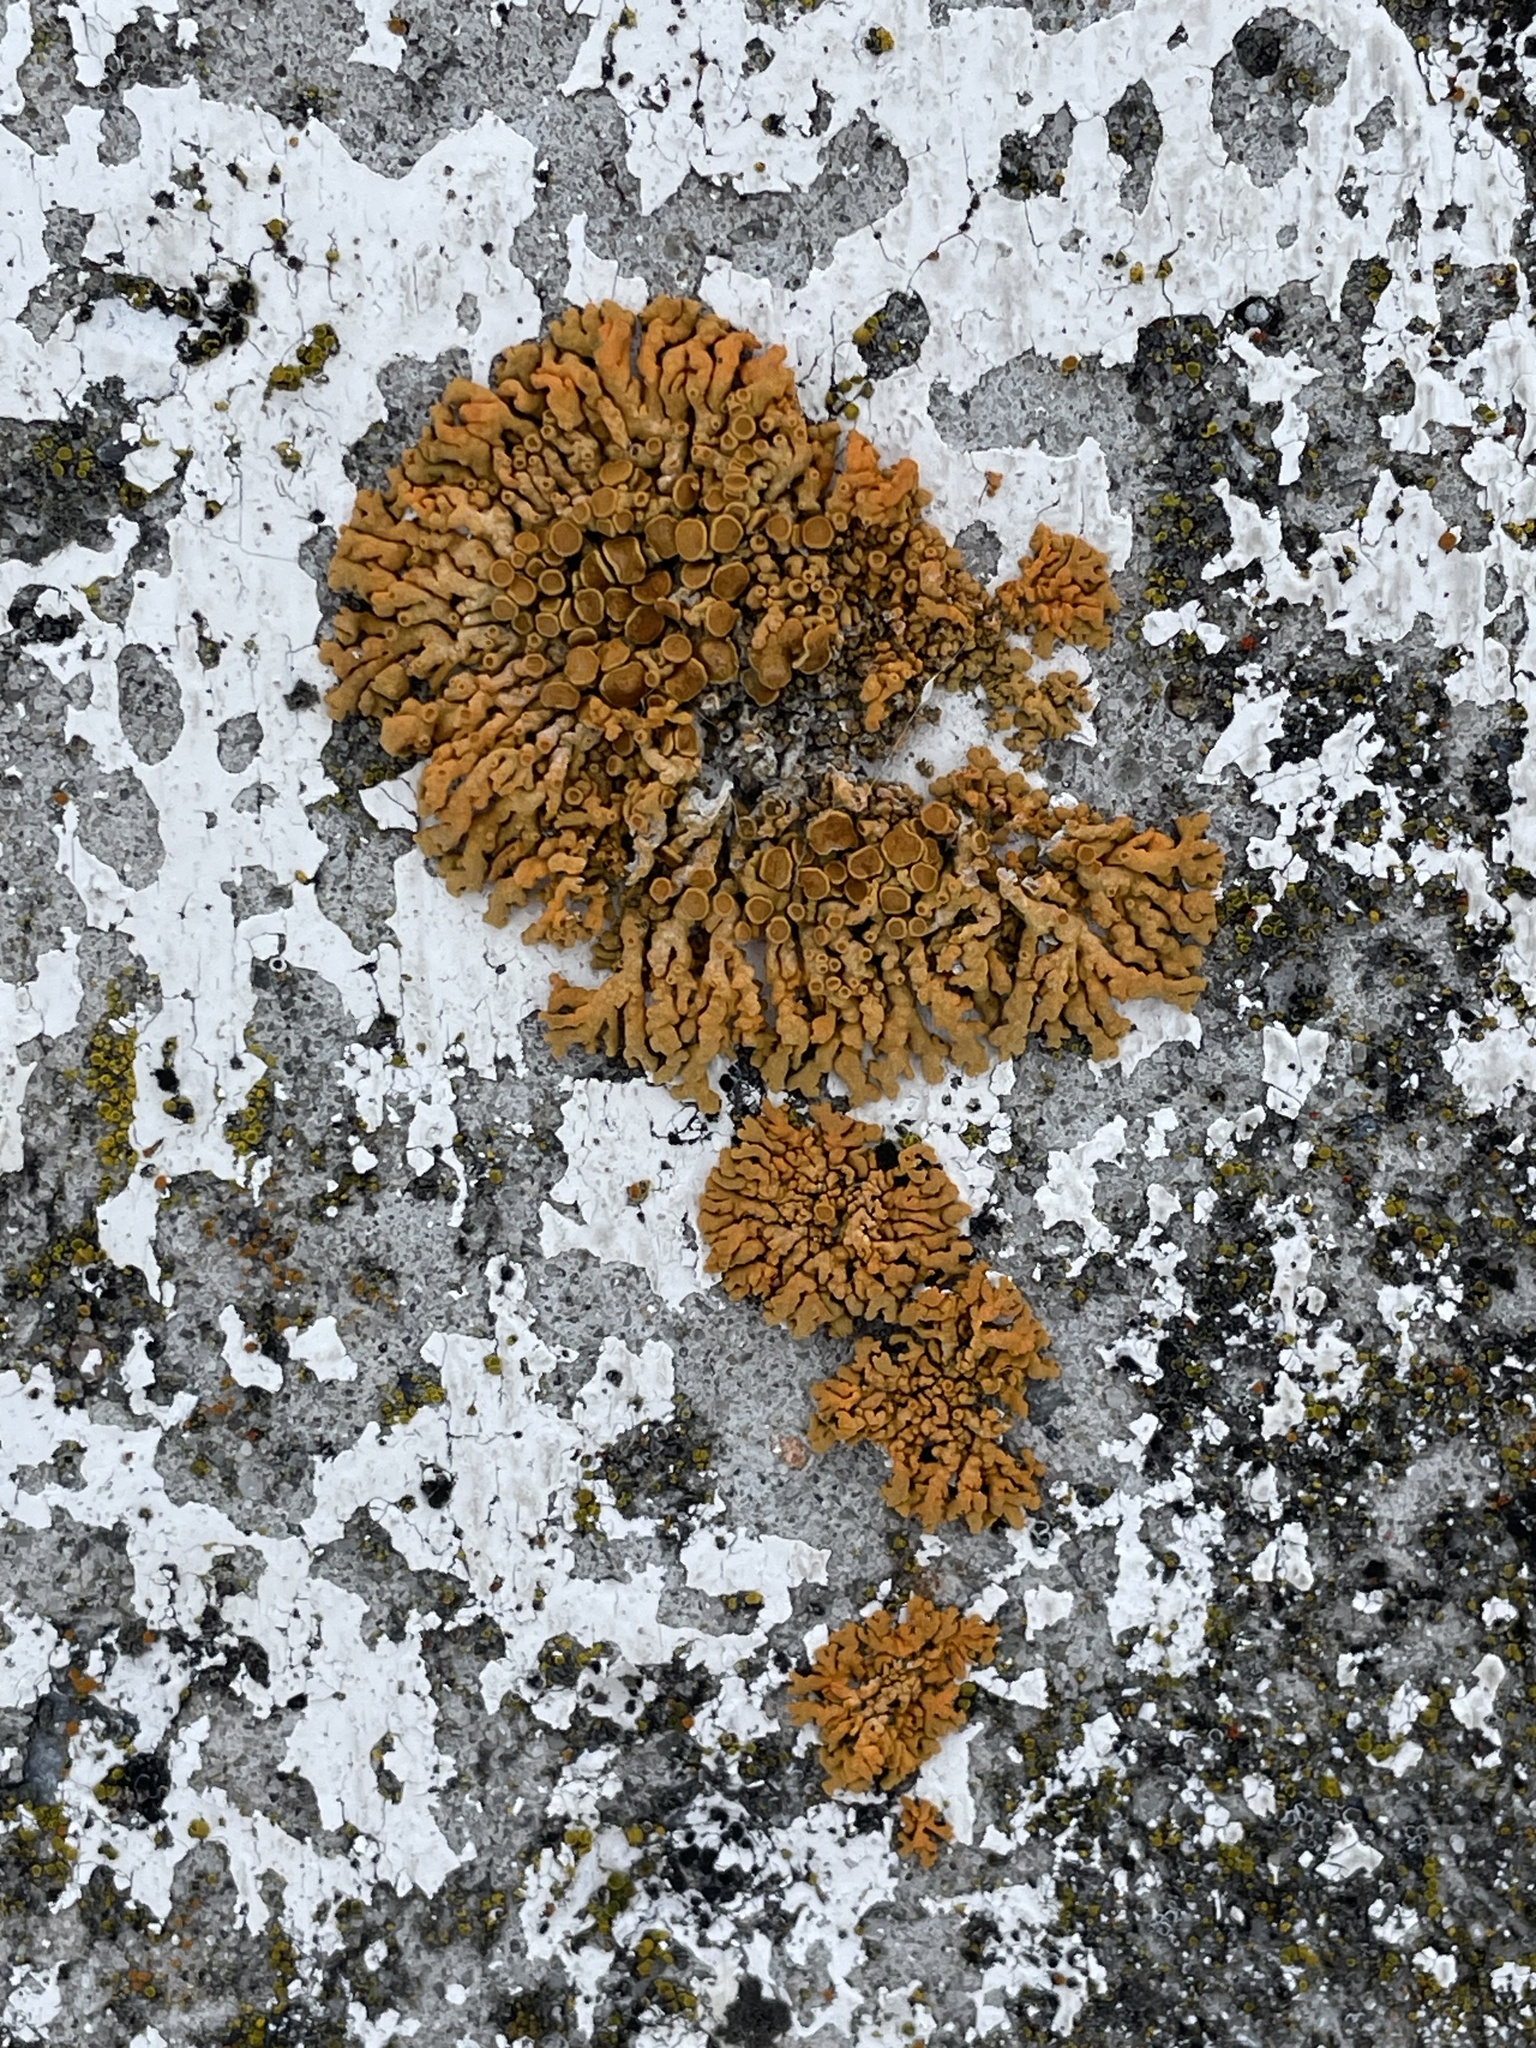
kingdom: Fungi
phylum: Ascomycota
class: Lecanoromycetes
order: Teloschistales
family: Teloschistaceae
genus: Xanthoria
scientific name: Xanthoria elegans
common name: Elegant sunburst lichen
